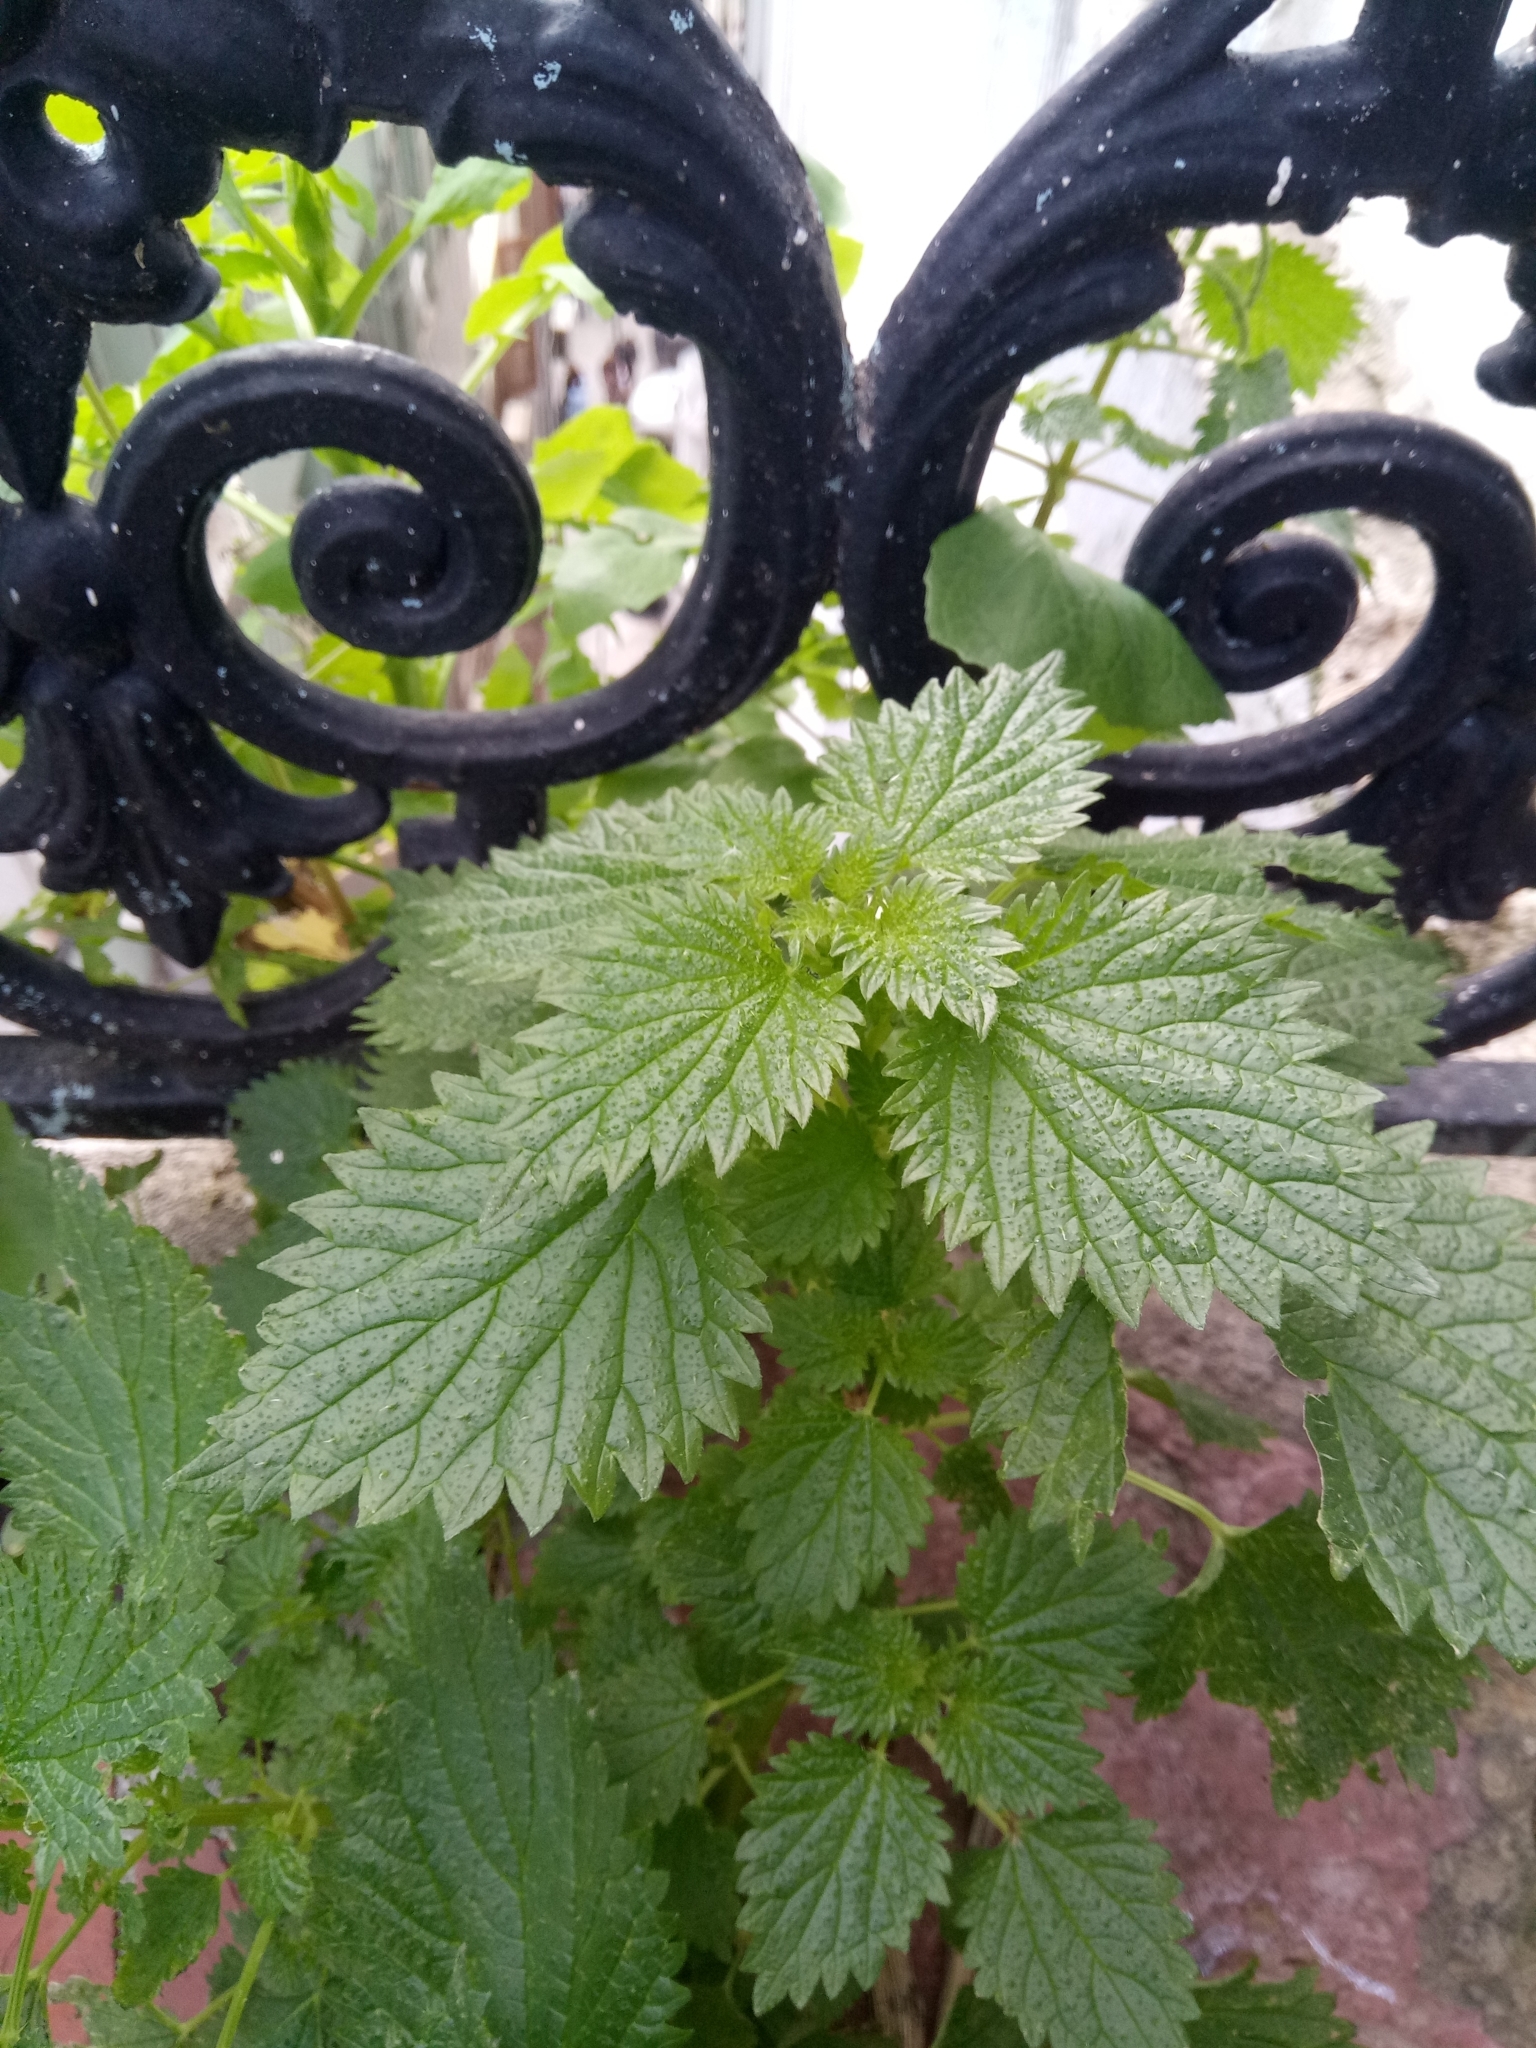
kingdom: Plantae
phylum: Tracheophyta
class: Magnoliopsida
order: Rosales
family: Urticaceae
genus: Urtica
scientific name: Urtica membranacea
